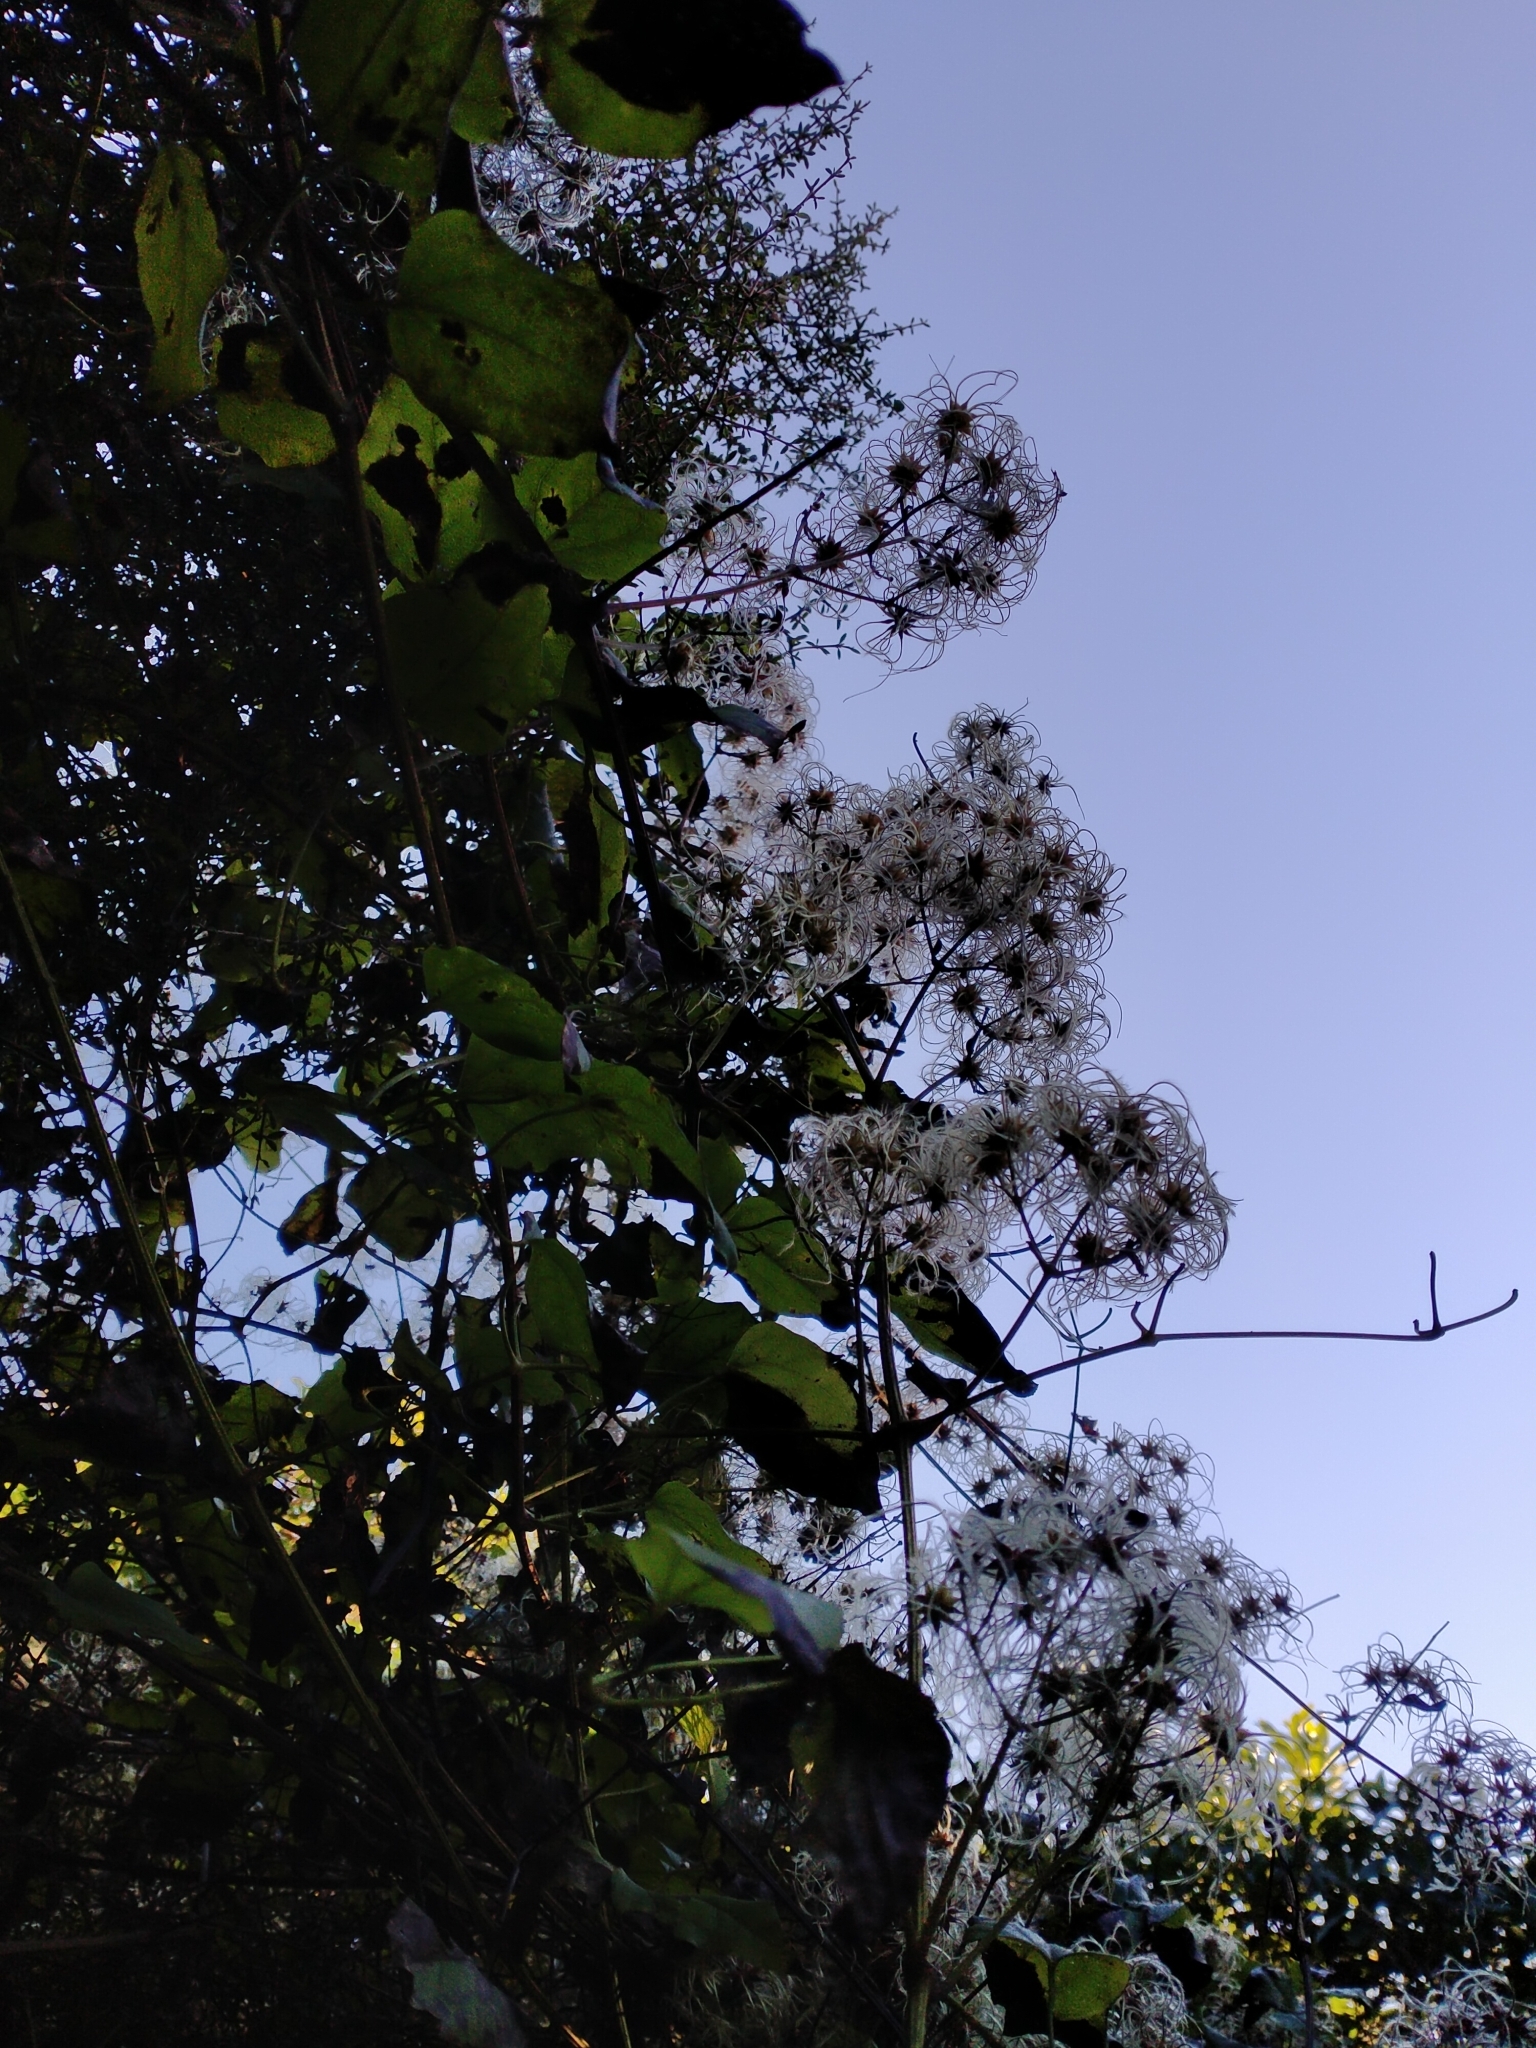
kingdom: Plantae
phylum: Tracheophyta
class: Magnoliopsida
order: Ranunculales
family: Ranunculaceae
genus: Clematis
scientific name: Clematis vitalba
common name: Evergreen clematis
